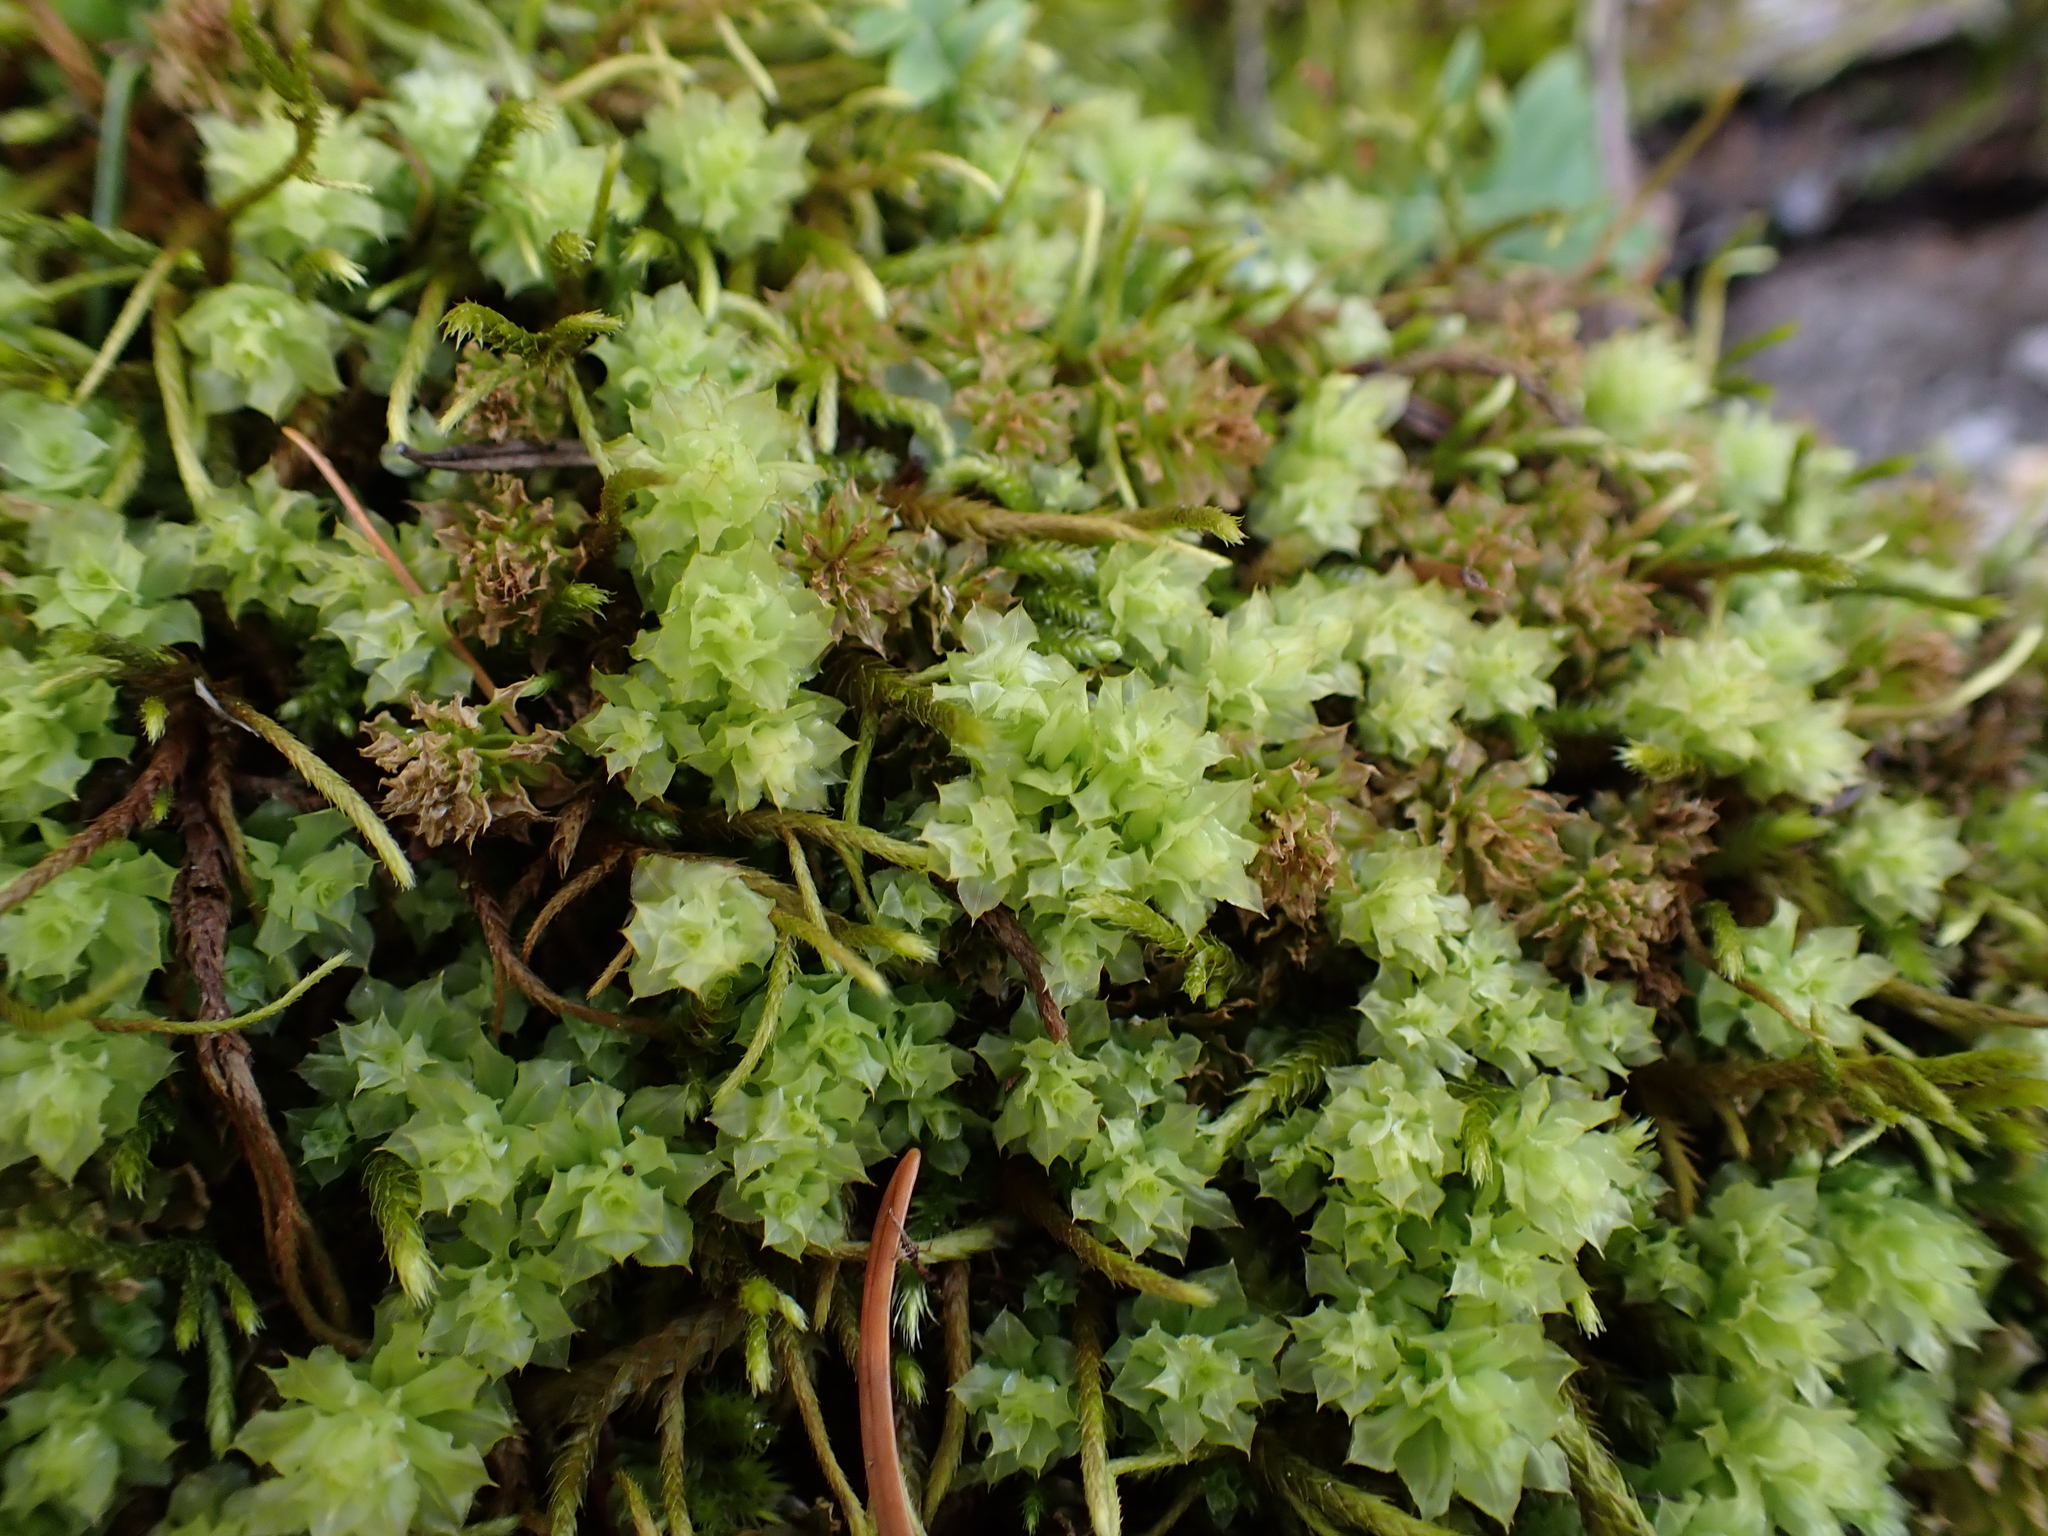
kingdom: Plantae
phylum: Bryophyta
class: Bryopsida
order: Bryales
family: Mniaceae
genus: Plagiomnium
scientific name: Plagiomnium venustum
